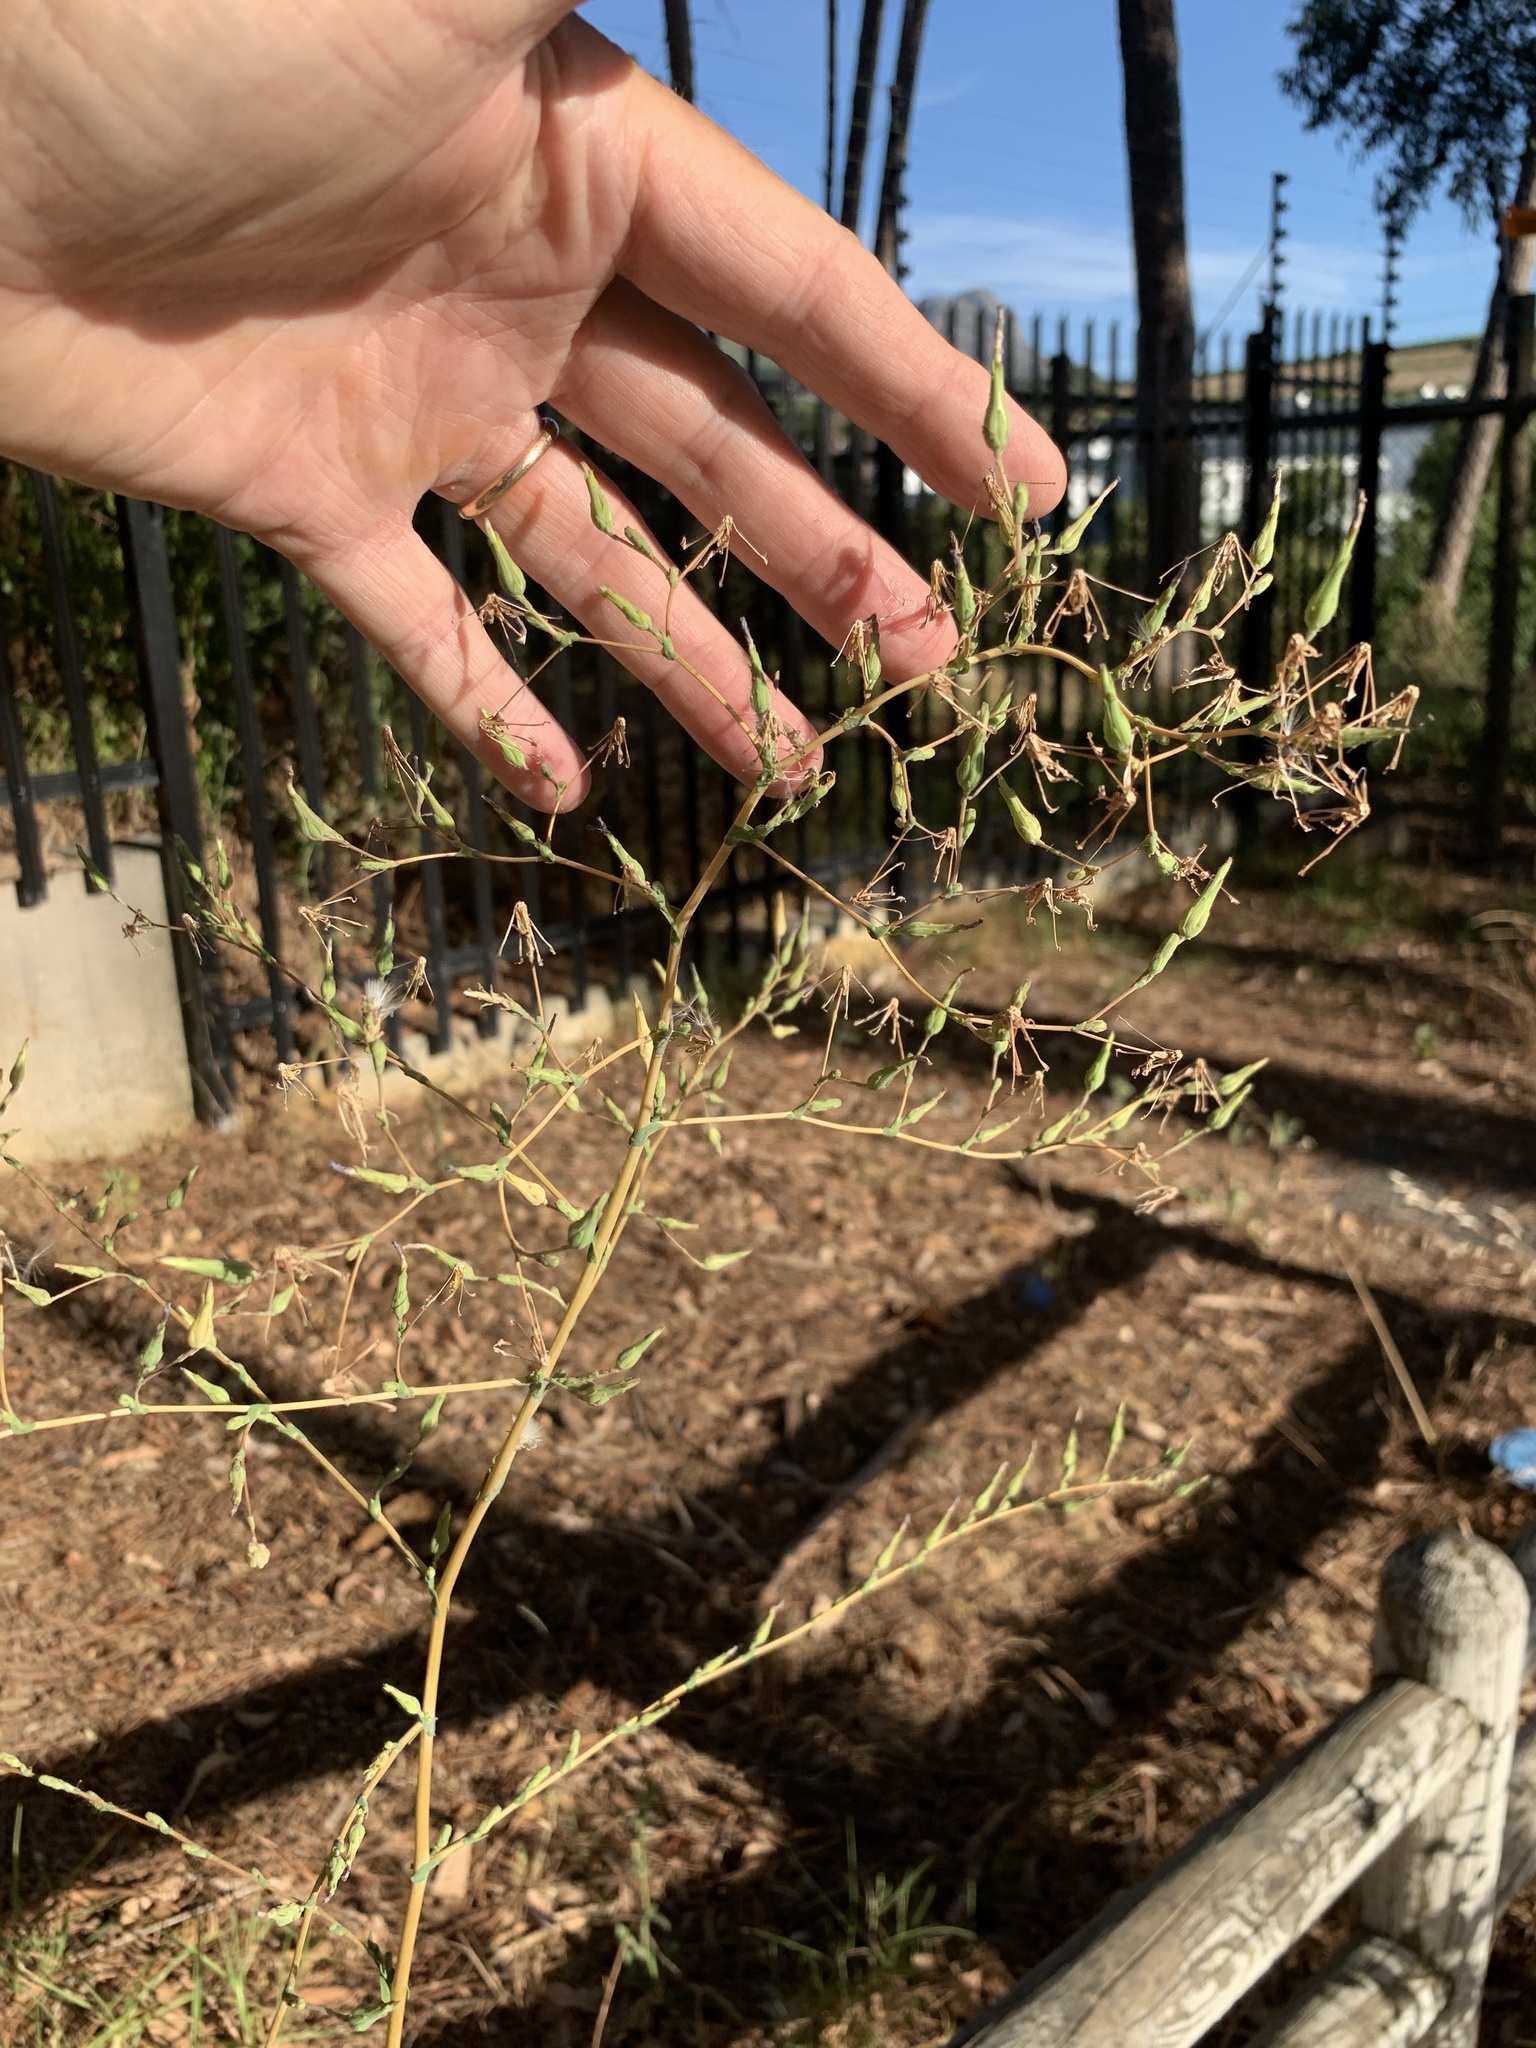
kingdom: Plantae
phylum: Tracheophyta
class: Magnoliopsida
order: Asterales
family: Asteraceae
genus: Lactuca
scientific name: Lactuca serriola
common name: Prickly lettuce
